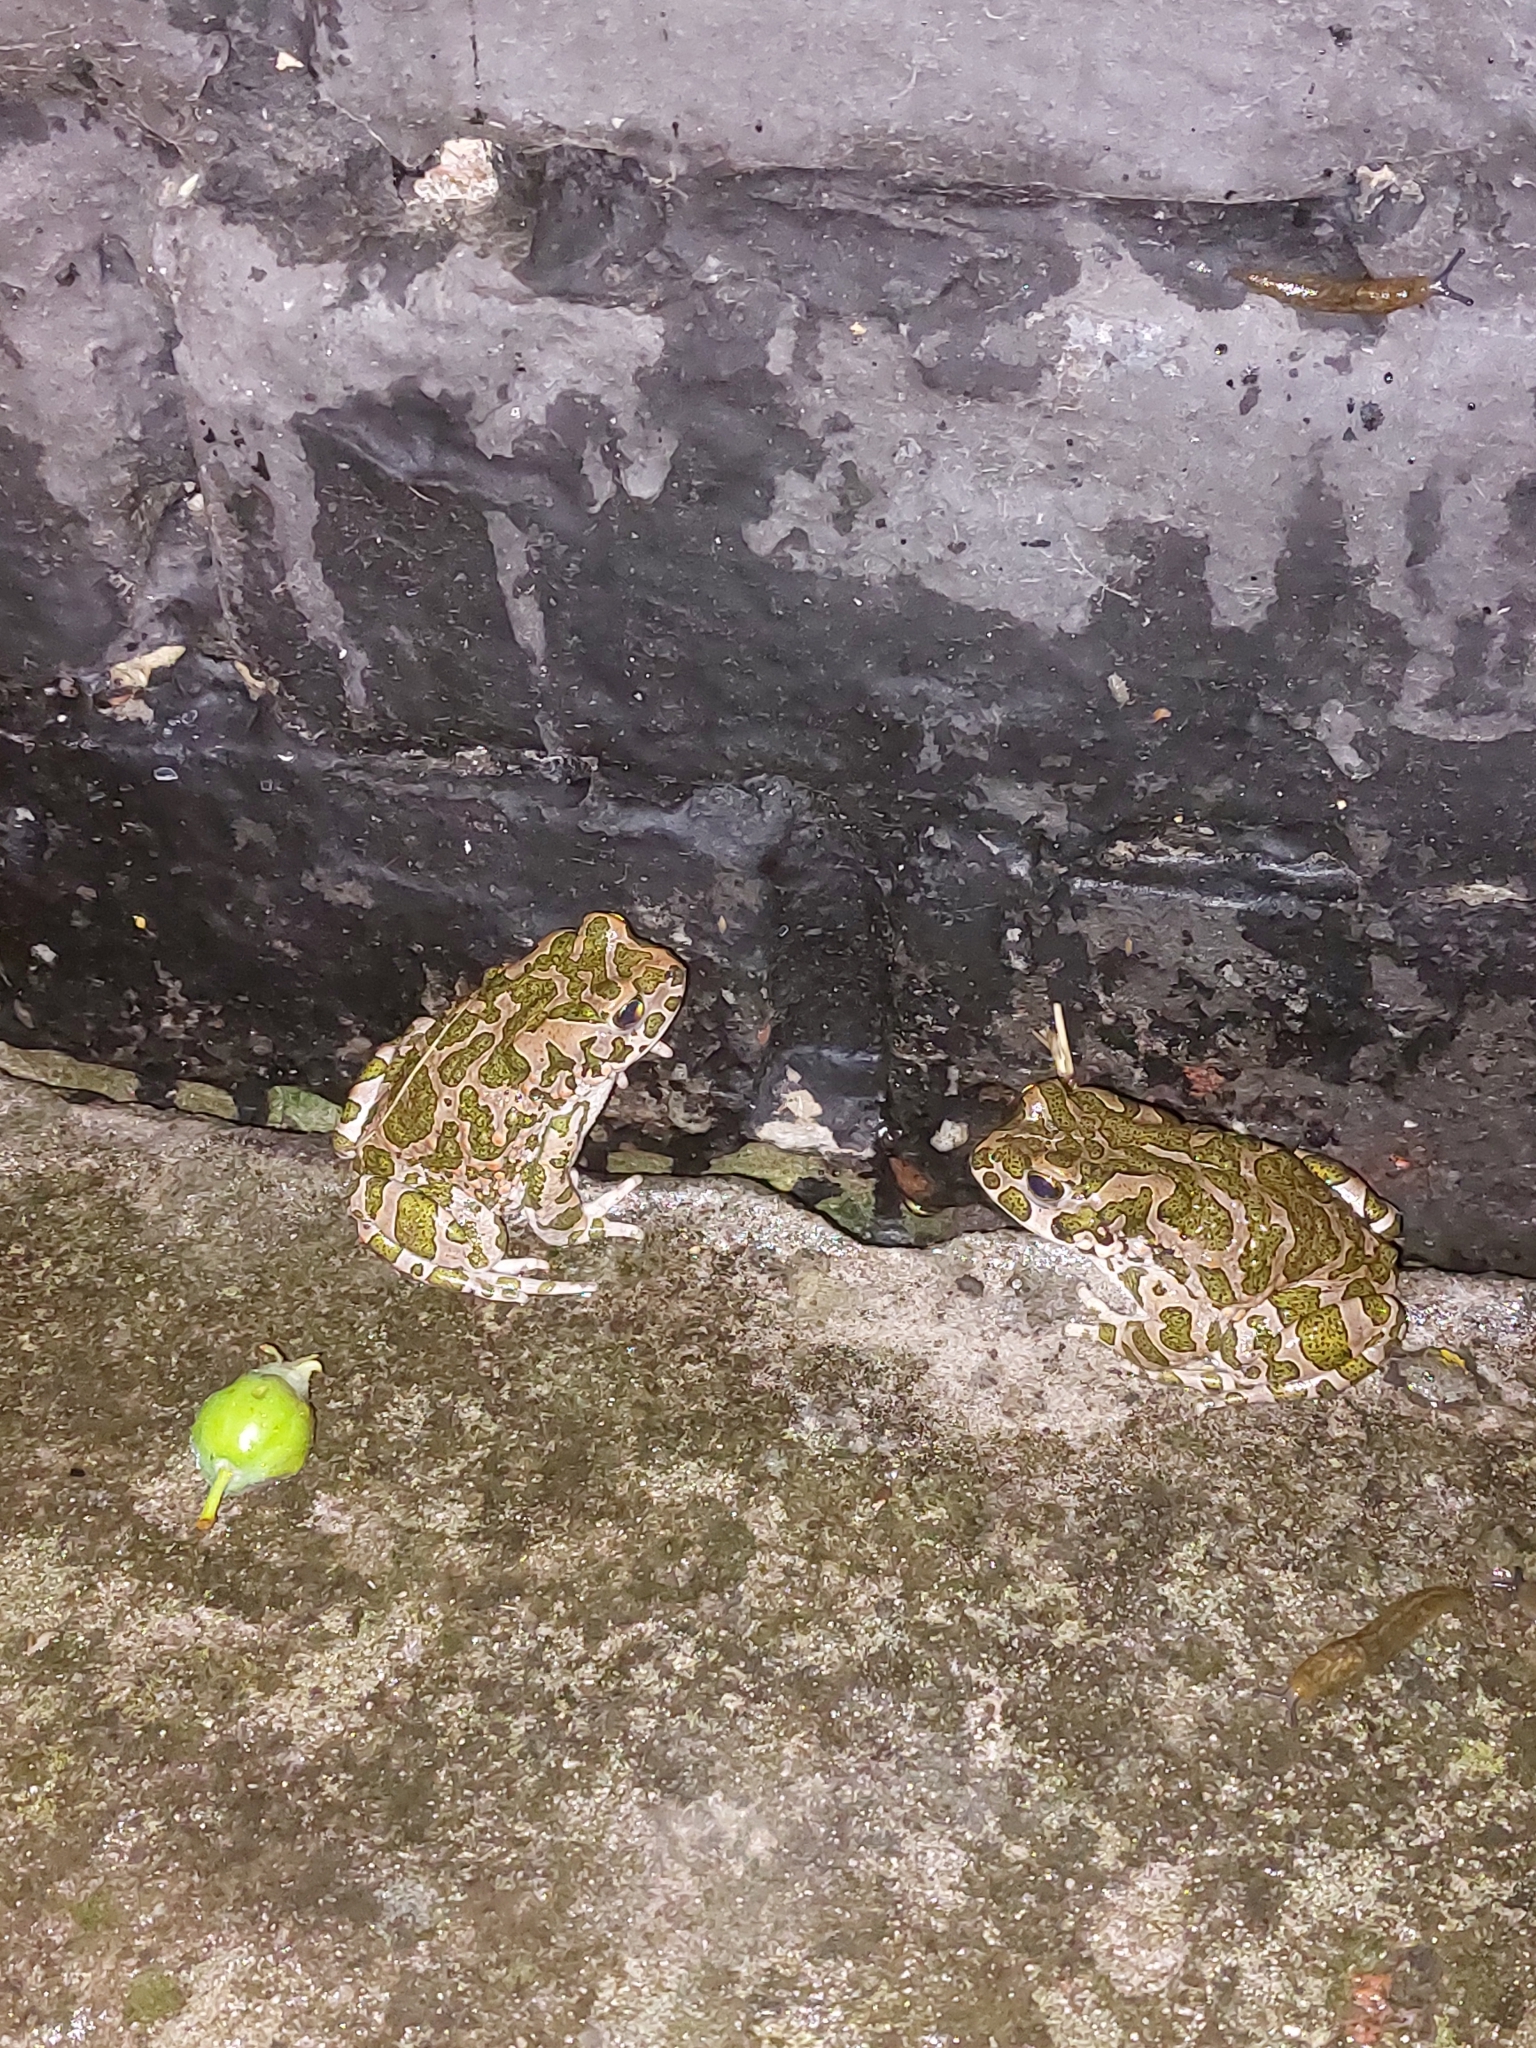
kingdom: Animalia
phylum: Chordata
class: Amphibia
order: Anura
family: Bufonidae
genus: Bufotes
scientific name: Bufotes viridis
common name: European green toad
